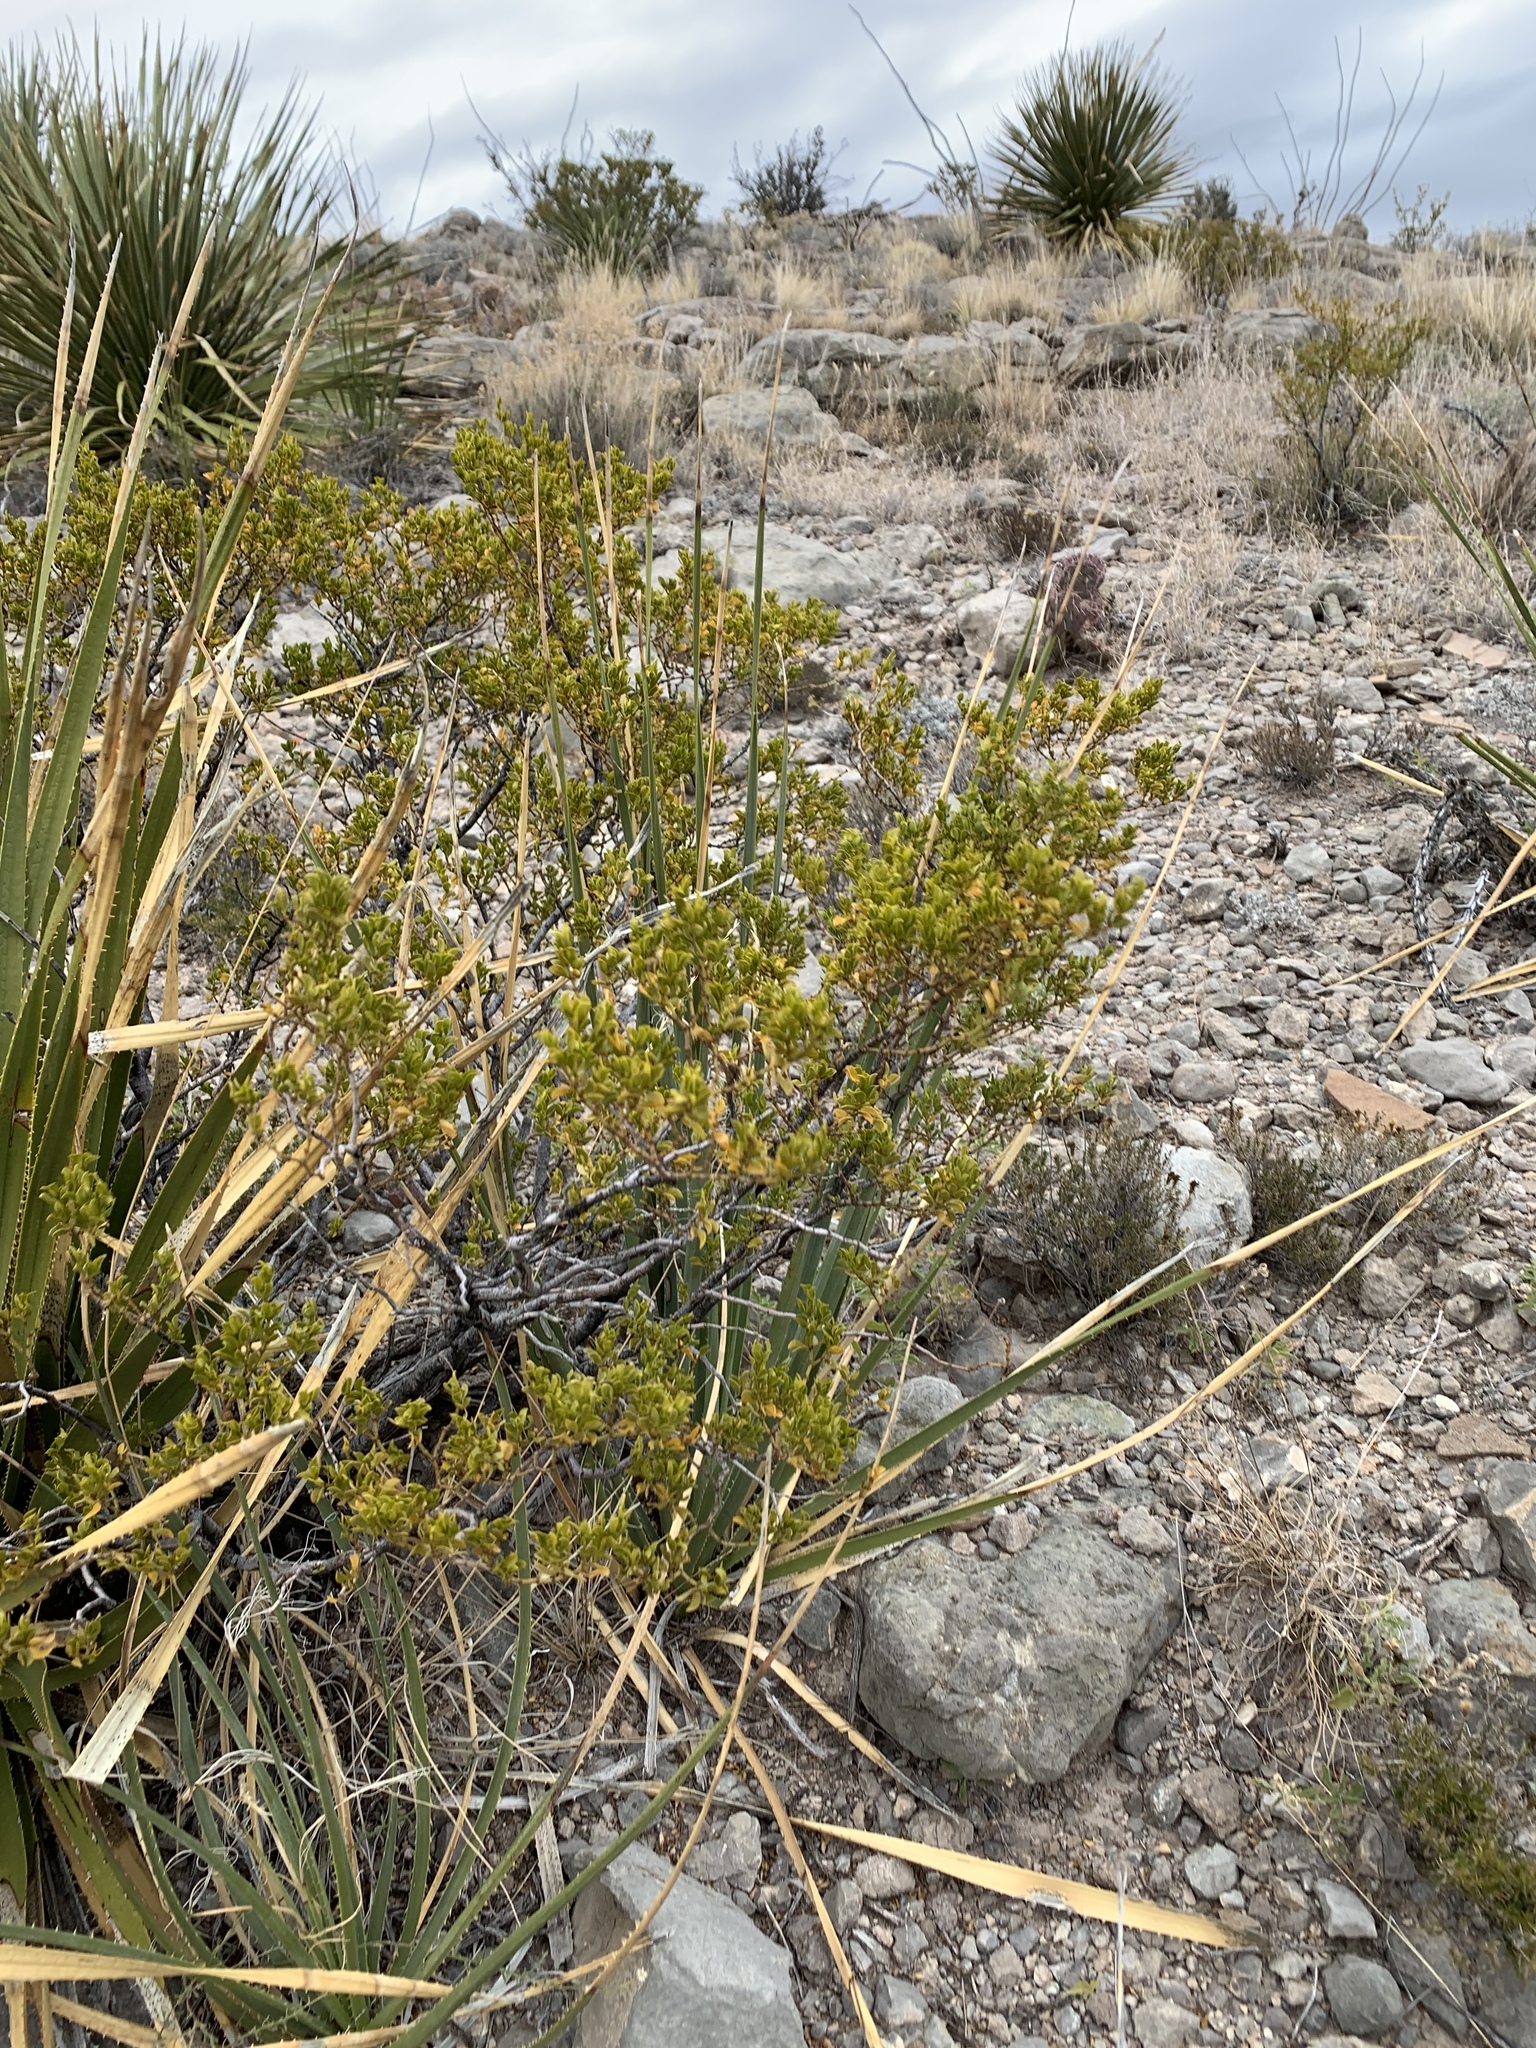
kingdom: Plantae
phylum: Tracheophyta
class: Magnoliopsida
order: Zygophyllales
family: Zygophyllaceae
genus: Larrea
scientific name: Larrea tridentata
